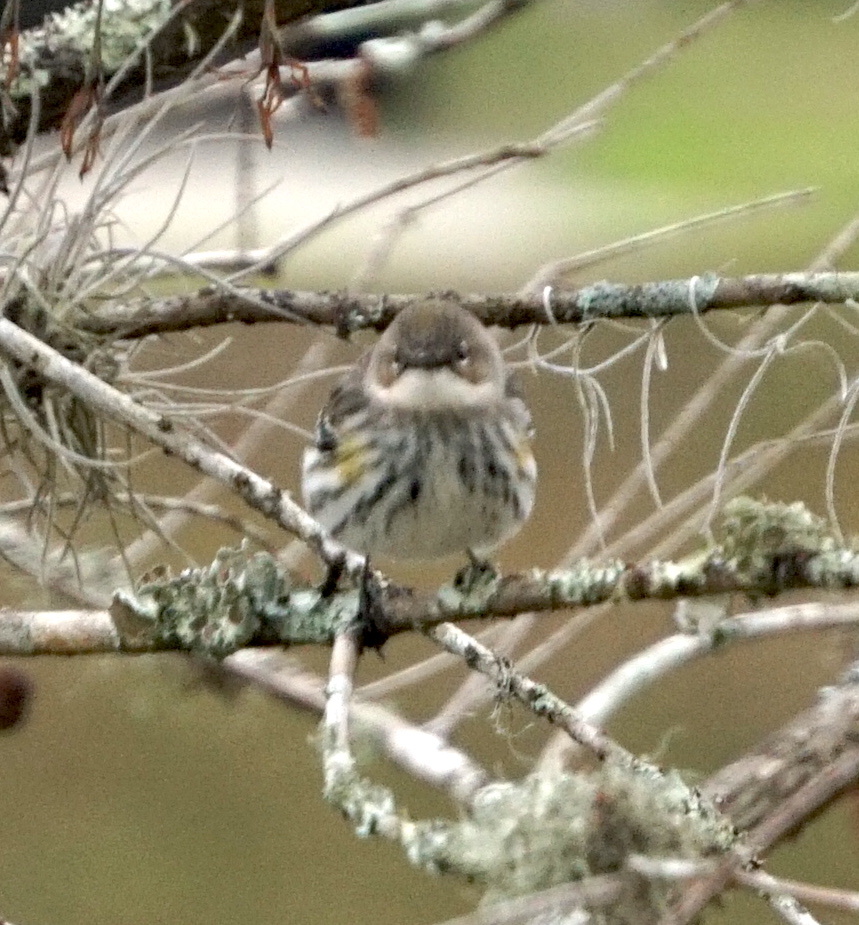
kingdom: Animalia
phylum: Chordata
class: Aves
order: Passeriformes
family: Parulidae
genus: Setophaga
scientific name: Setophaga coronata
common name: Myrtle warbler
